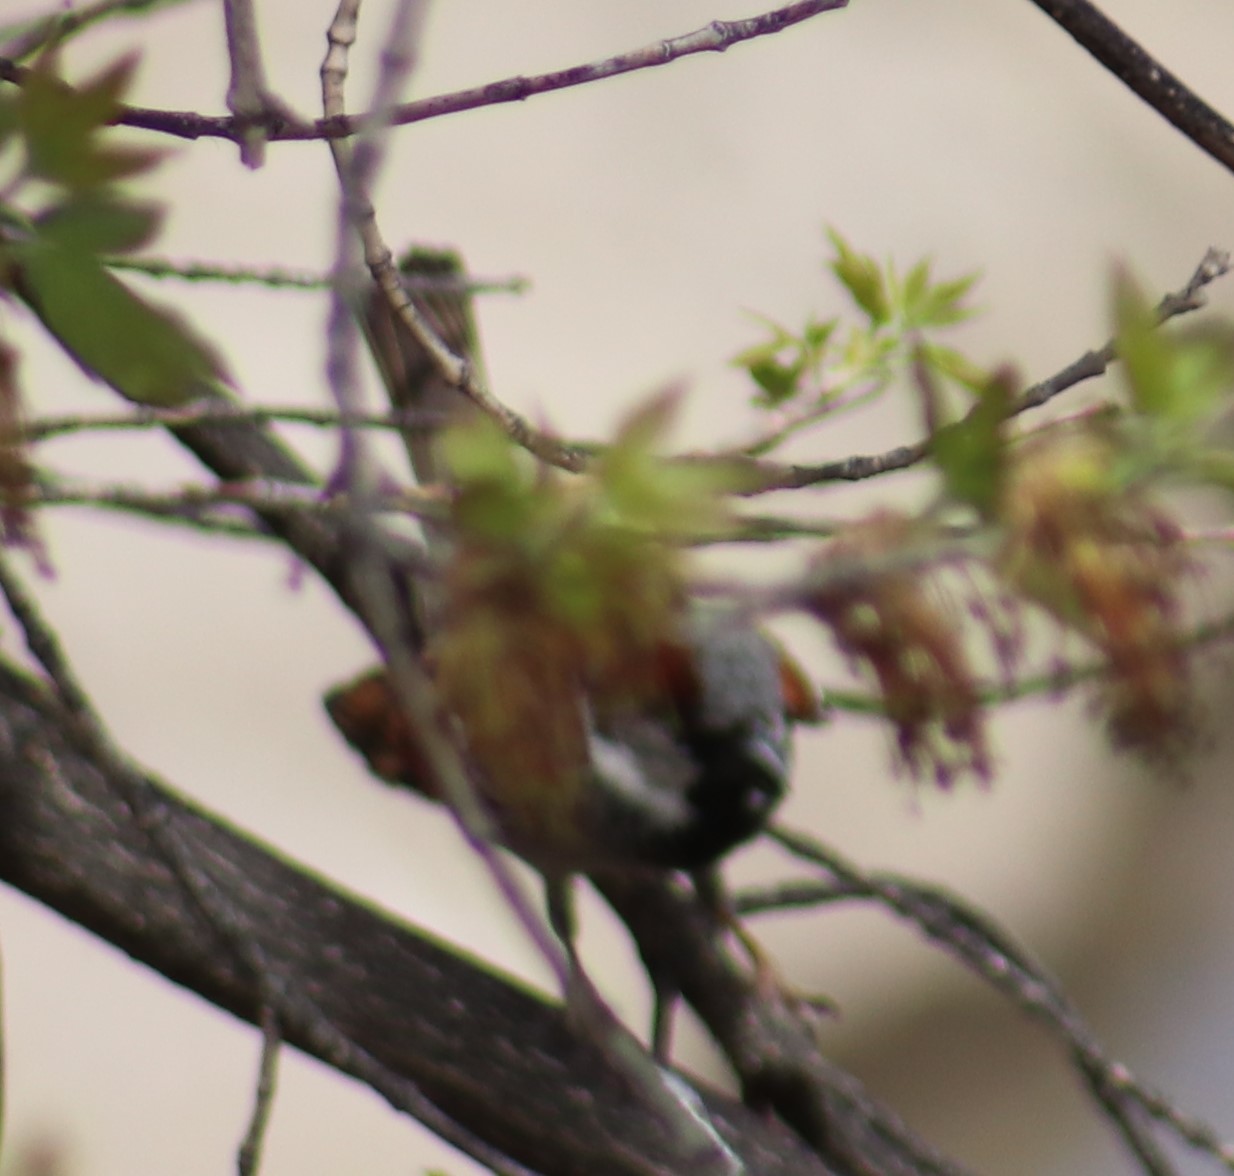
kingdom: Animalia
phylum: Chordata
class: Aves
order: Passeriformes
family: Passeridae
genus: Passer
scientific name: Passer domesticus
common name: House sparrow
